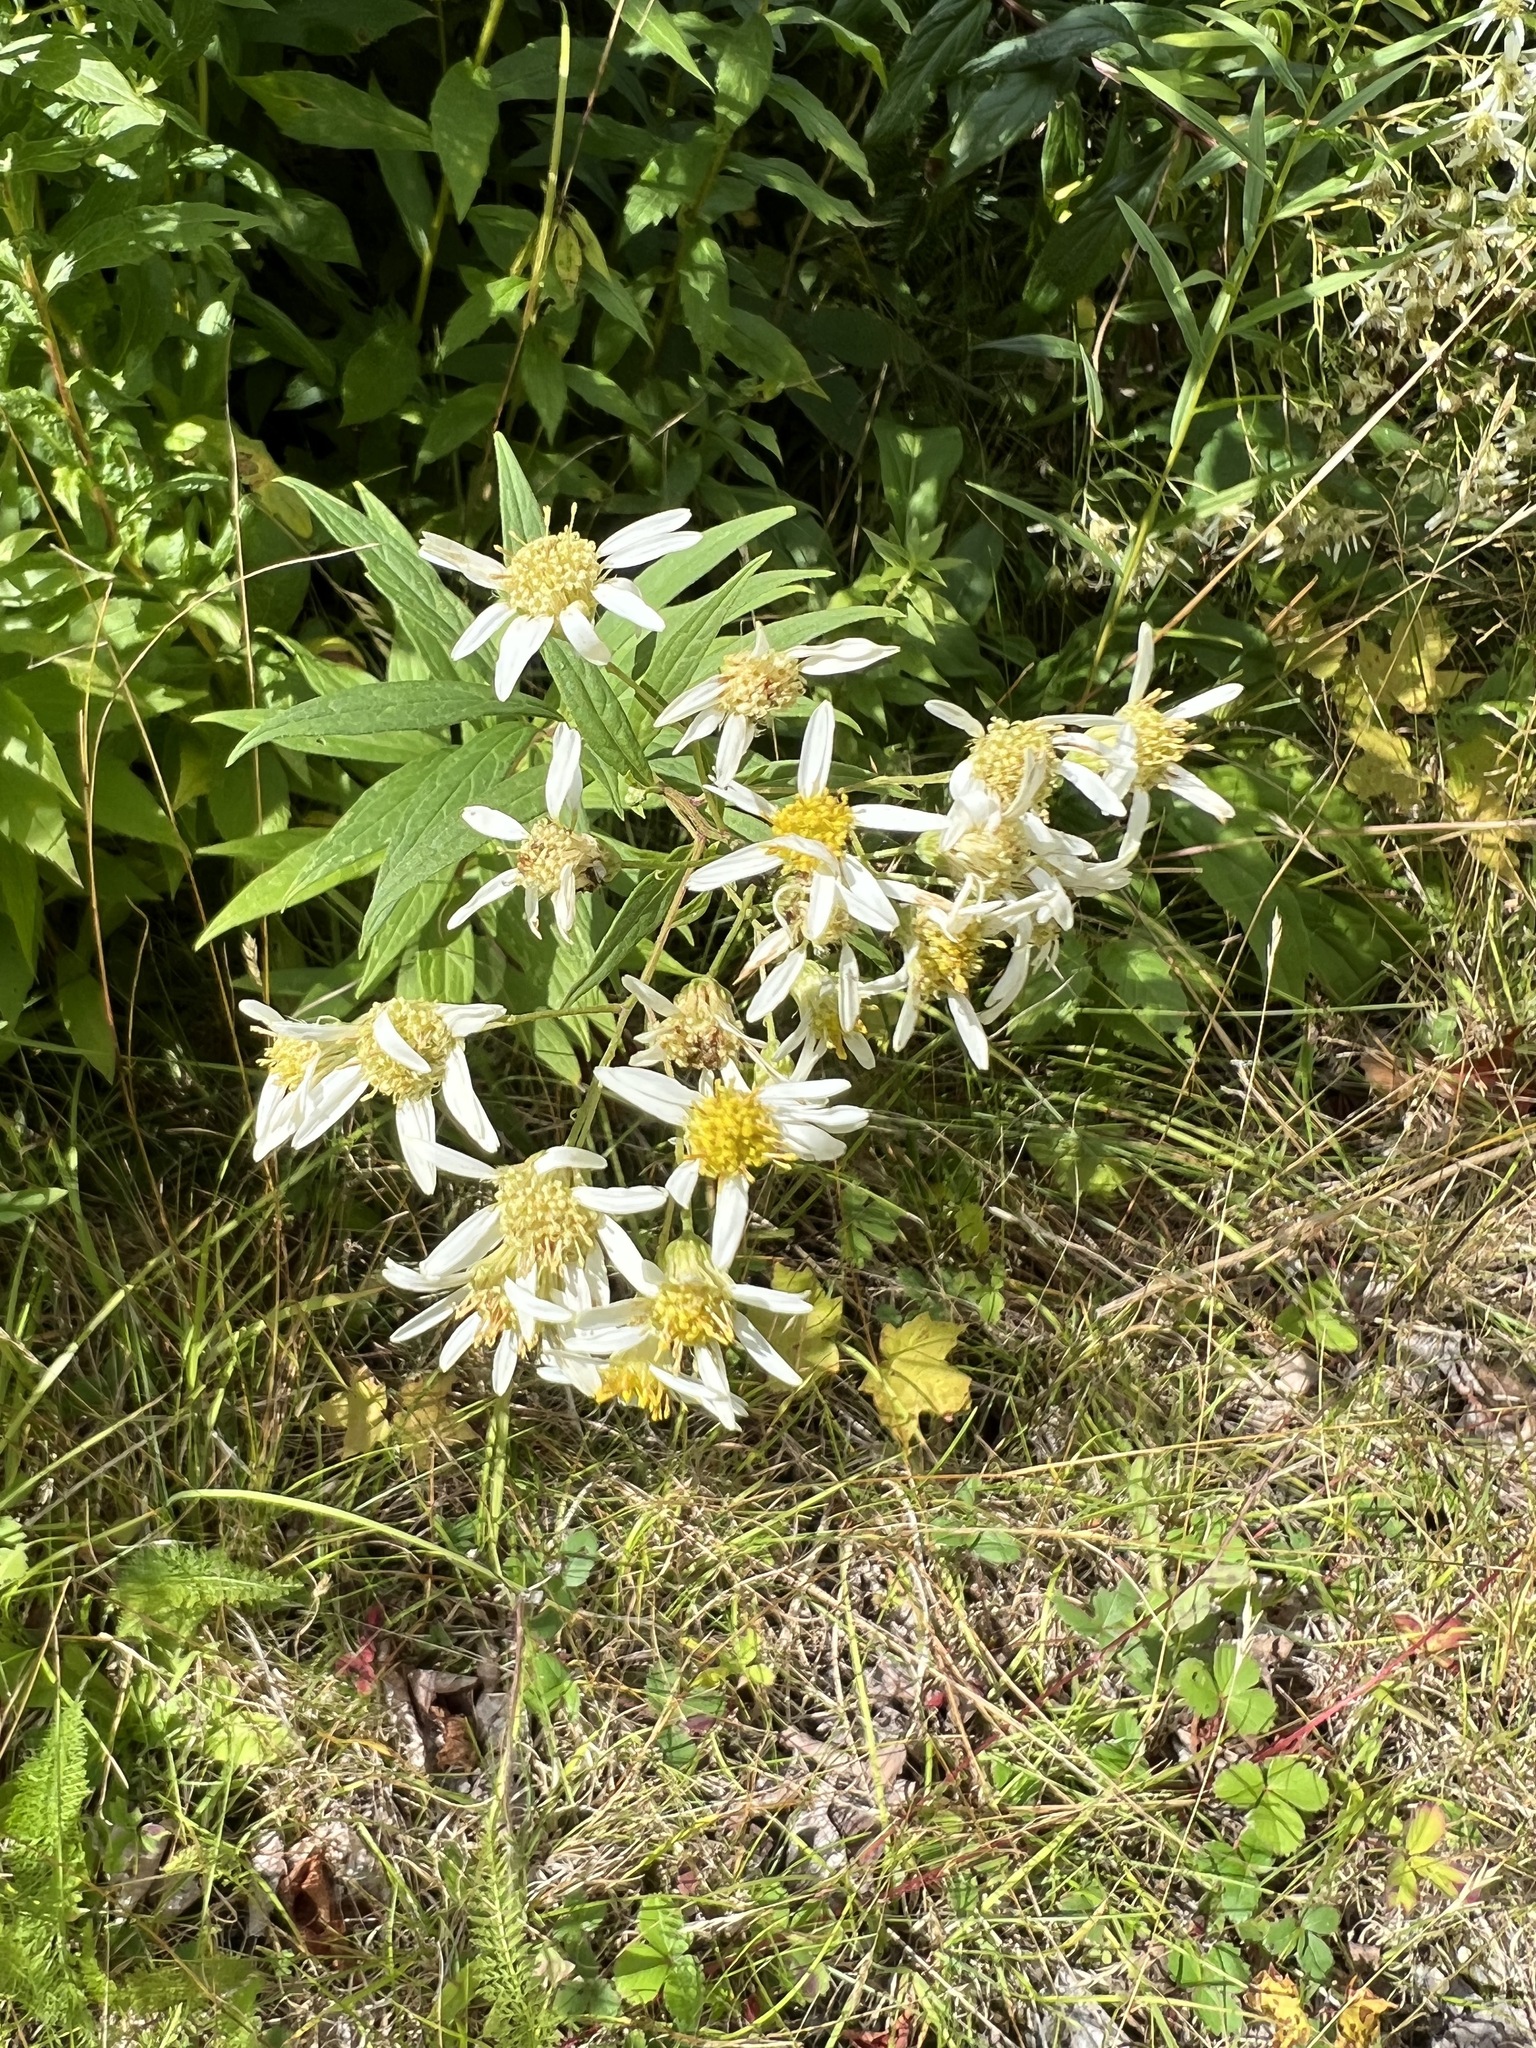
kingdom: Plantae
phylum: Tracheophyta
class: Magnoliopsida
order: Asterales
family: Asteraceae
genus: Doellingeria
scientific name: Doellingeria umbellata
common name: Flat-top white aster
